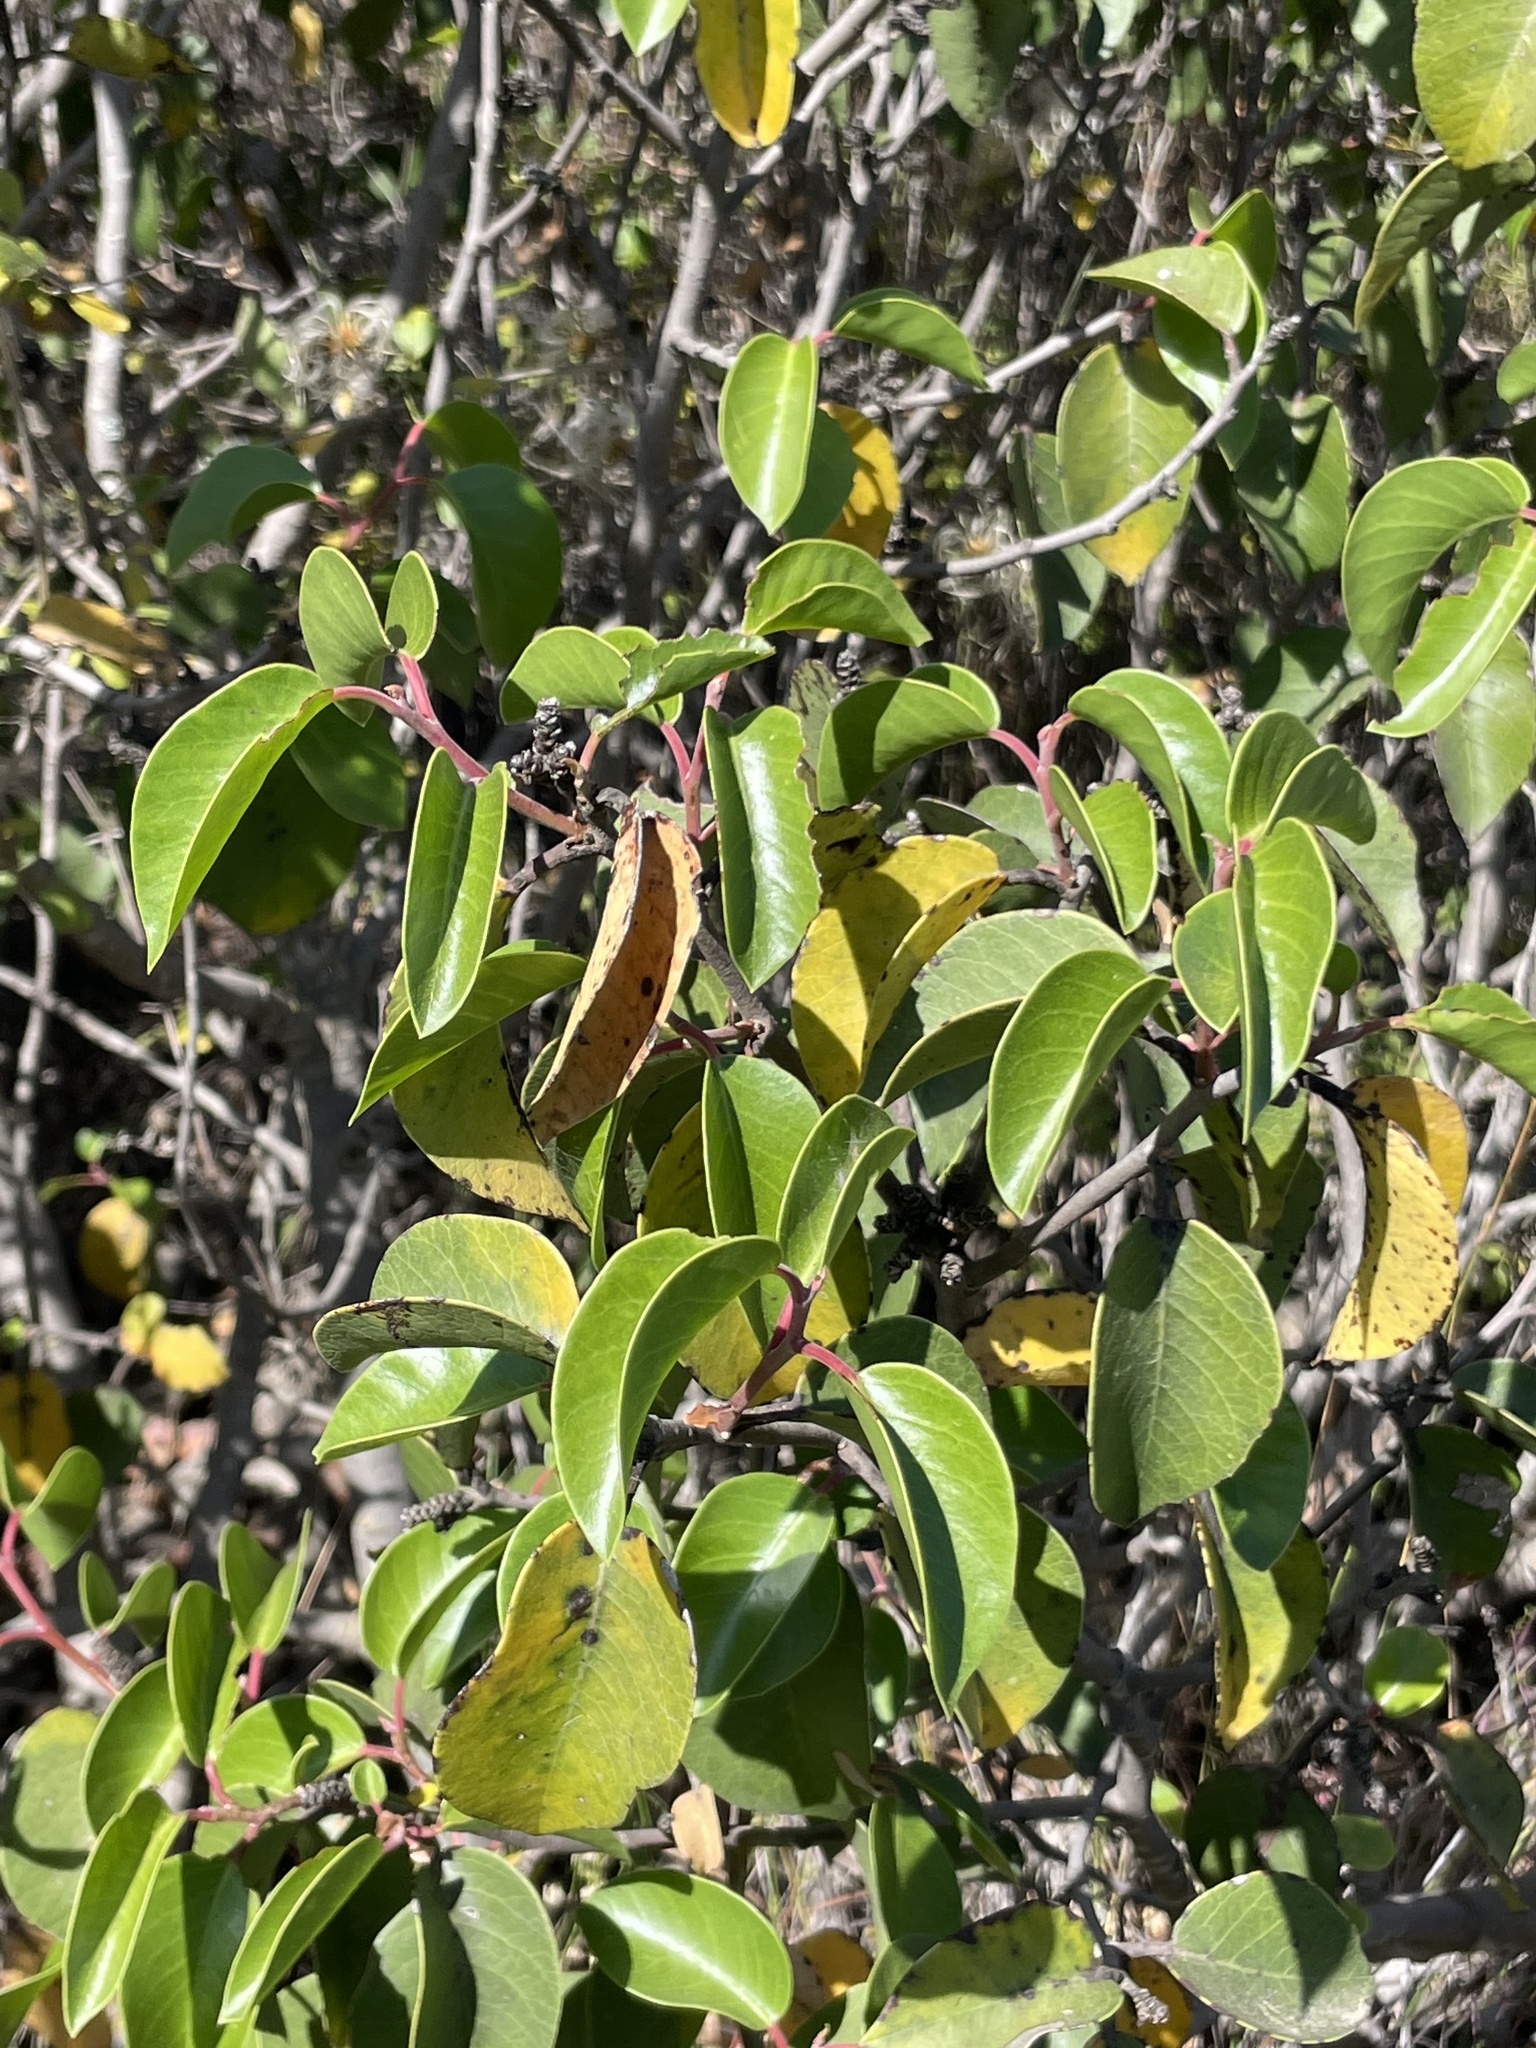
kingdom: Plantae
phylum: Tracheophyta
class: Magnoliopsida
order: Sapindales
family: Anacardiaceae
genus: Rhus
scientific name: Rhus ovata
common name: Sugar sumac
